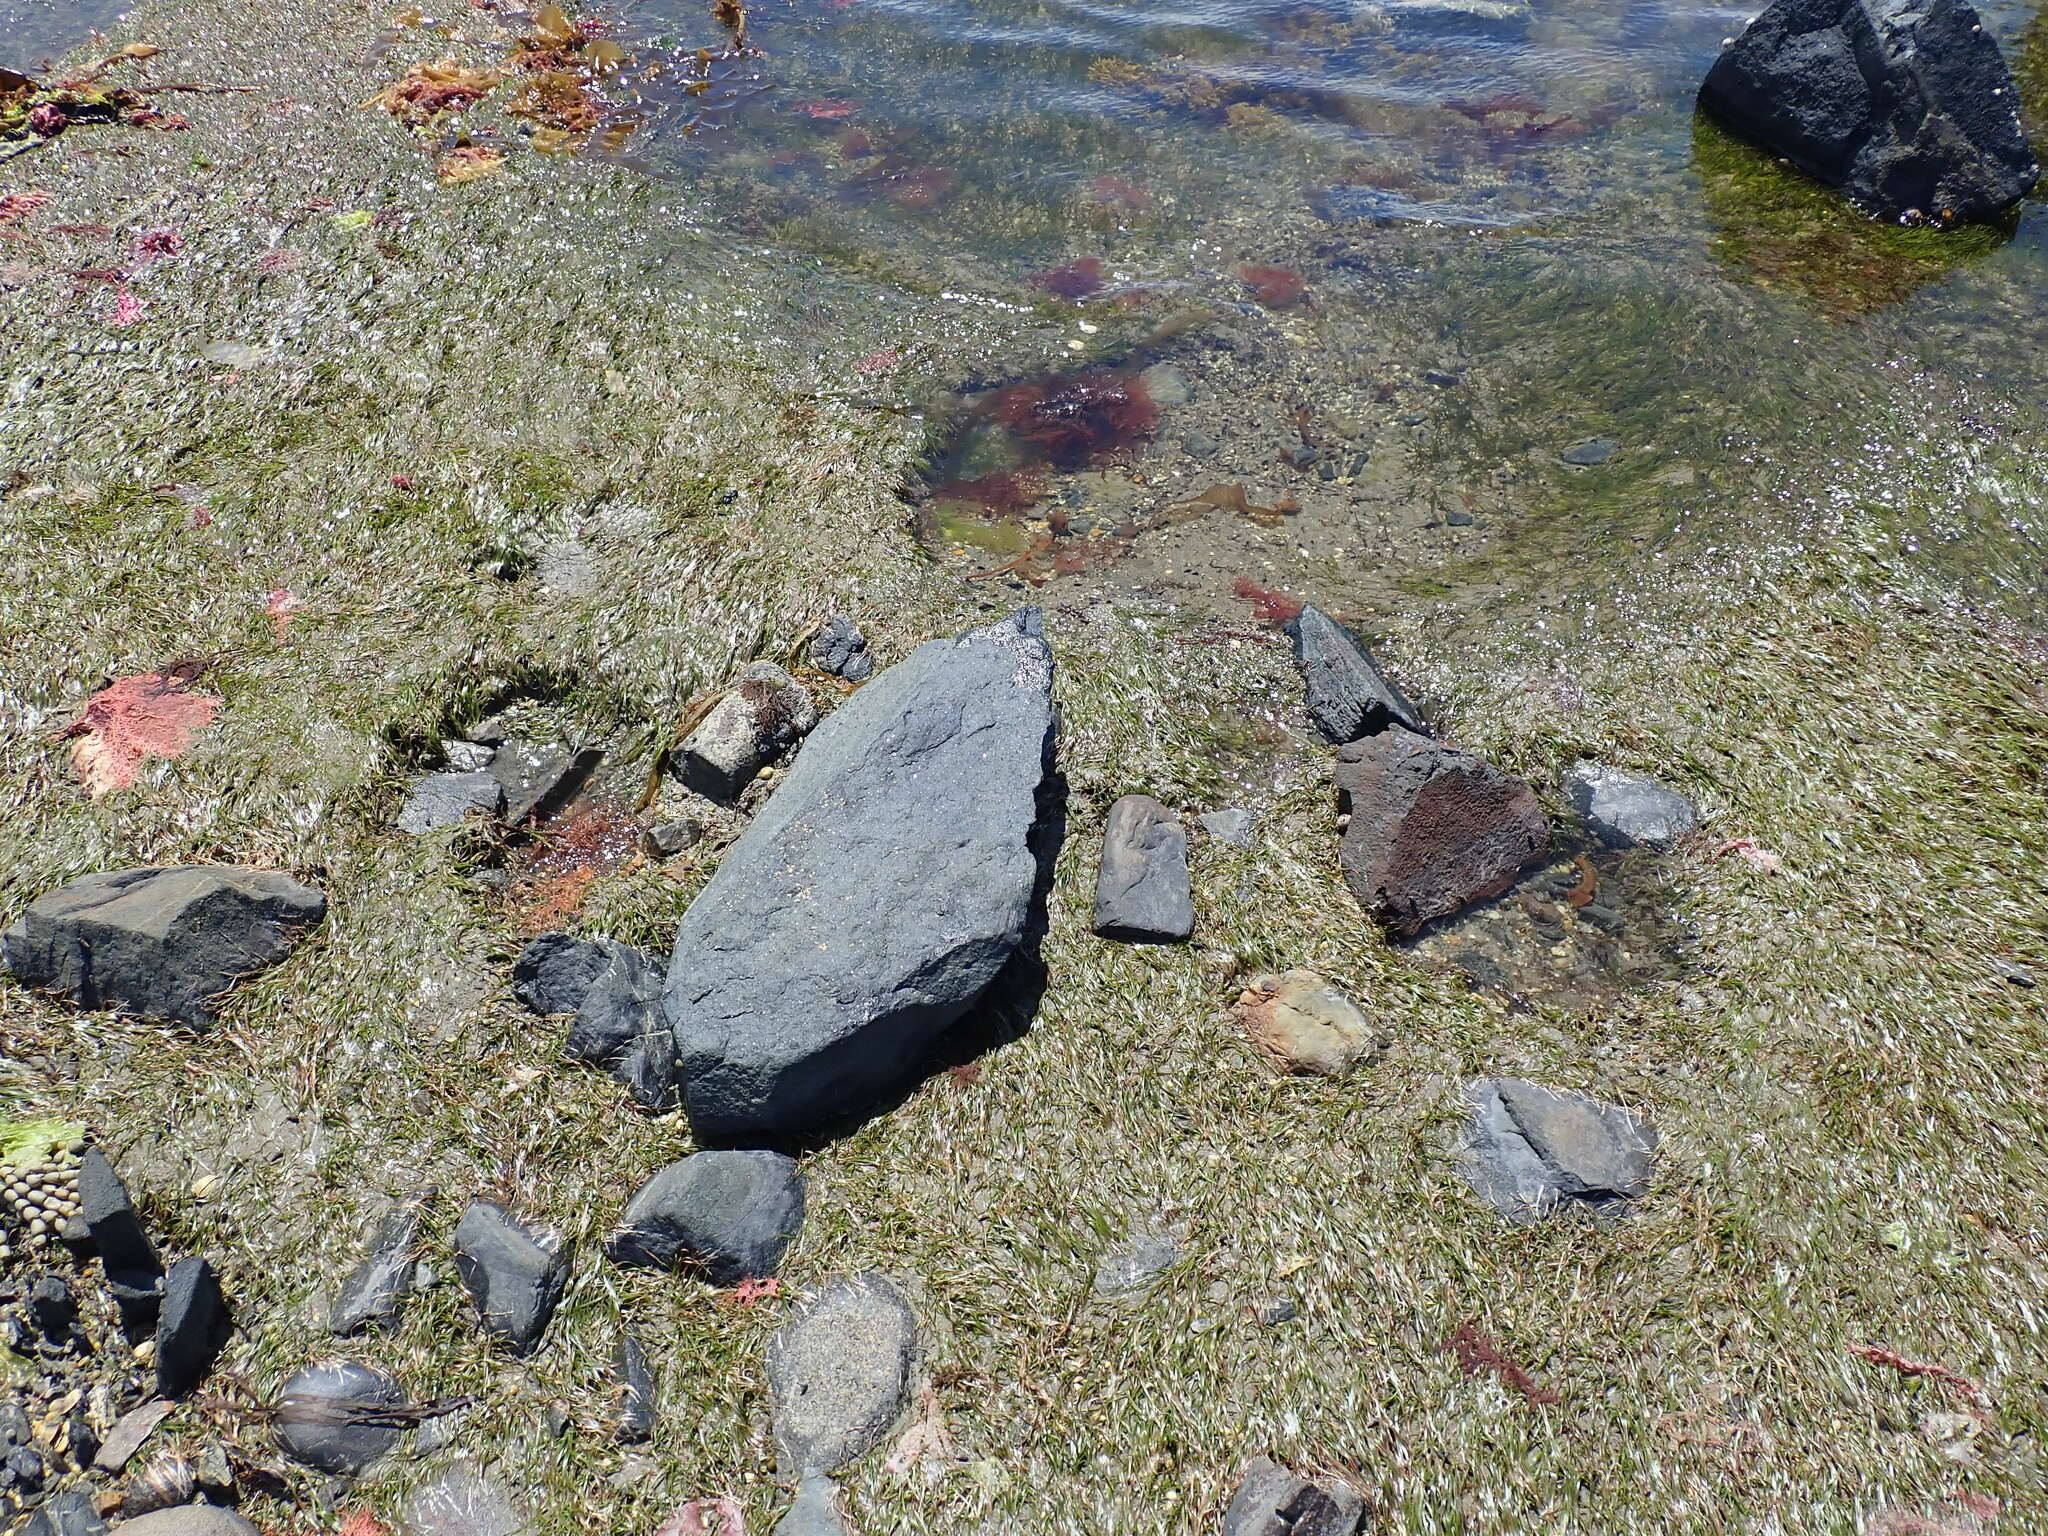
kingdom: Plantae
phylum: Tracheophyta
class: Liliopsida
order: Alismatales
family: Zosteraceae
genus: Zostera
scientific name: Zostera novazelandica
